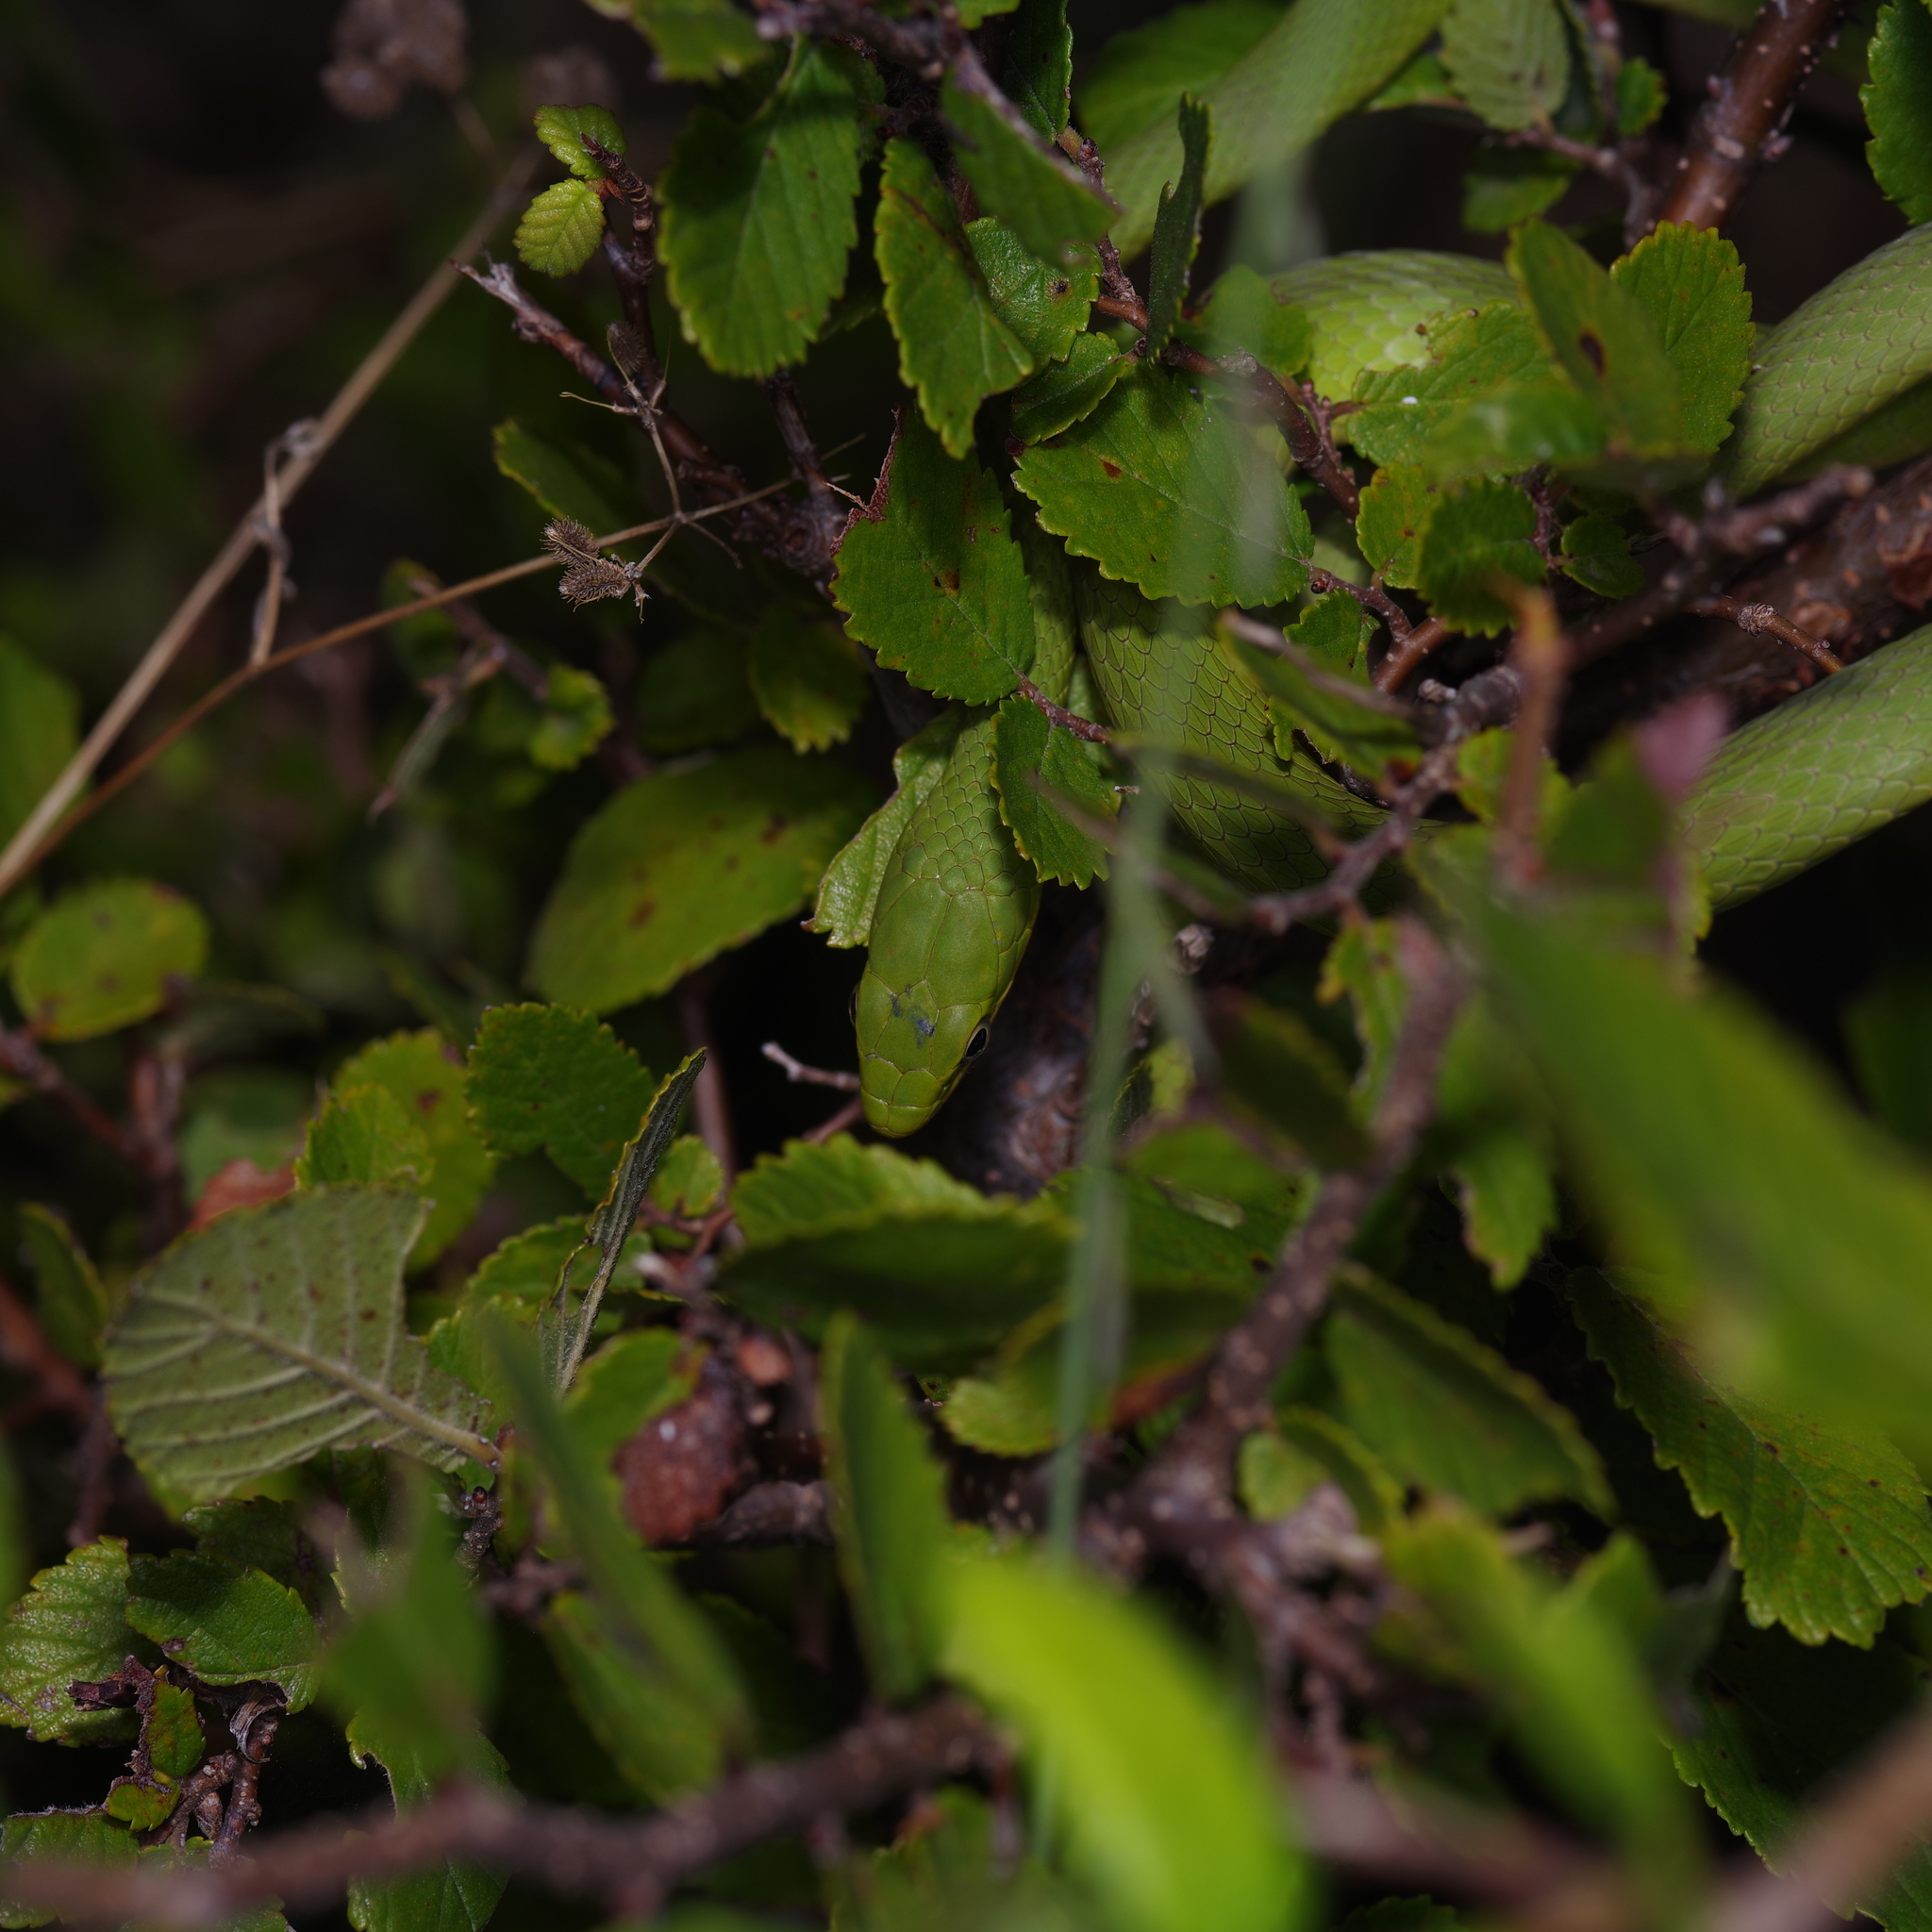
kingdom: Animalia
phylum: Chordata
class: Squamata
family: Colubridae
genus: Opheodrys
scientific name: Opheodrys aestivus
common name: Rough greensnake
